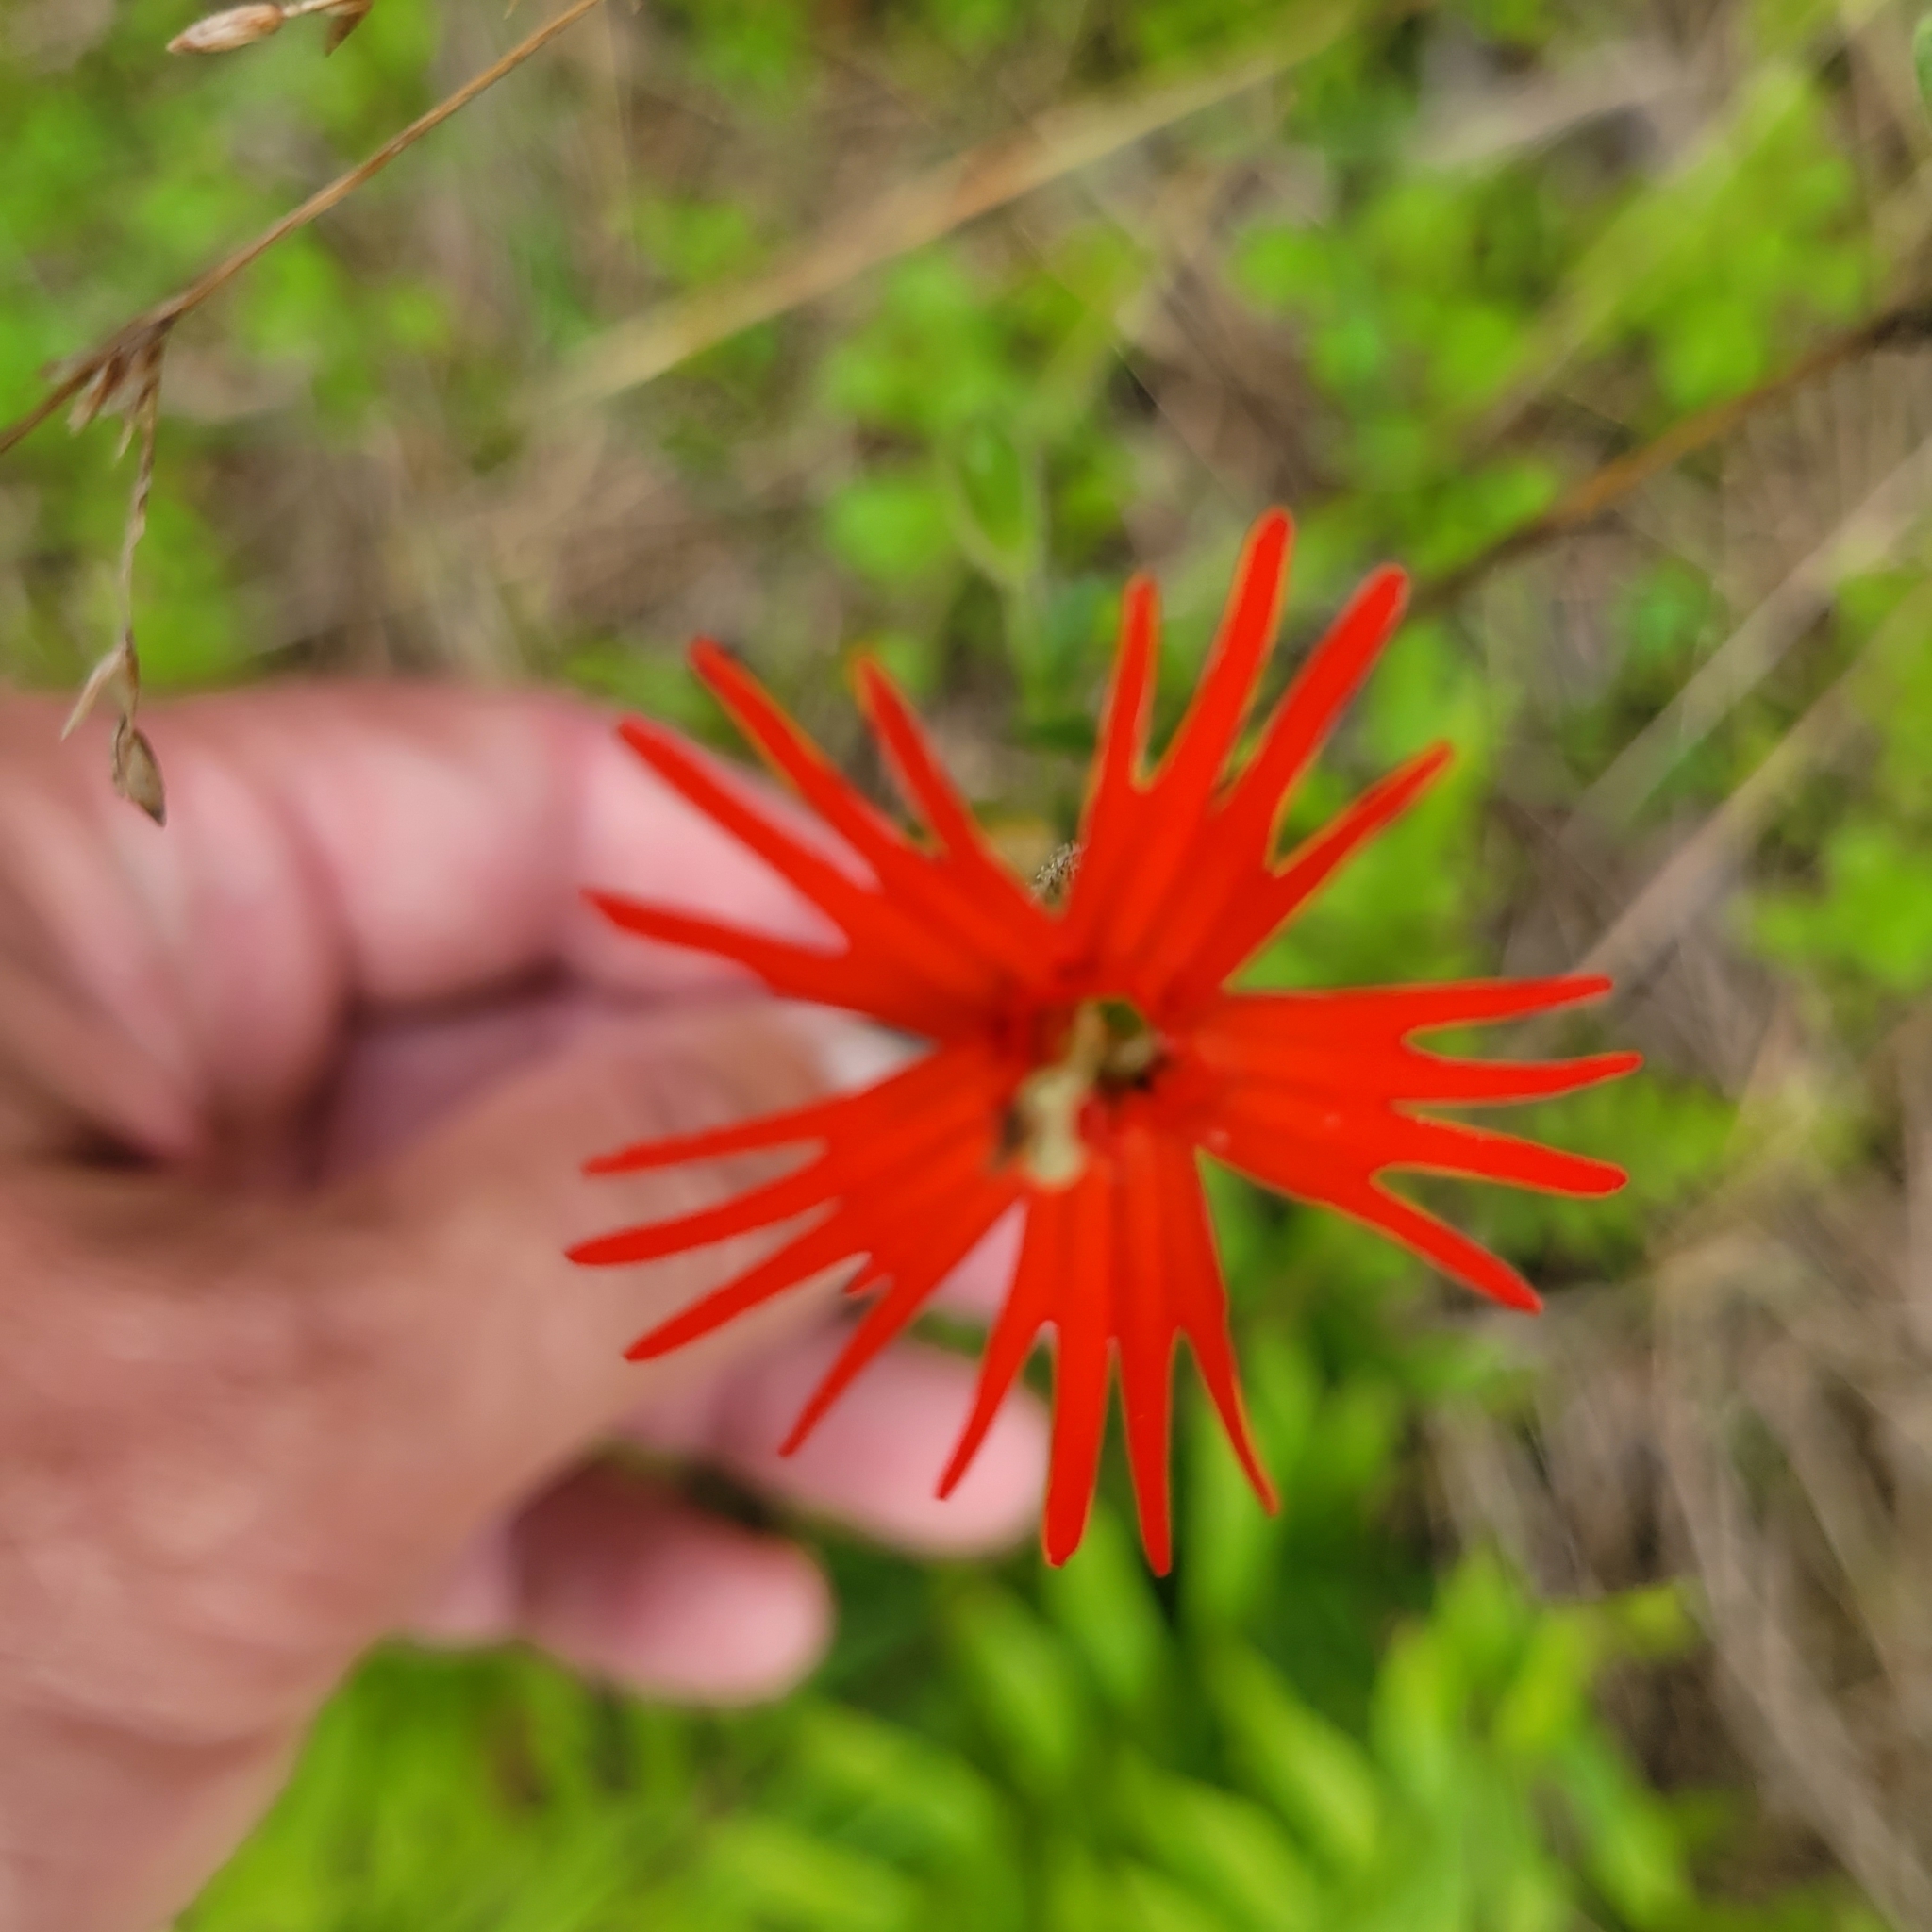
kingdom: Plantae
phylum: Tracheophyta
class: Magnoliopsida
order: Caryophyllales
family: Caryophyllaceae
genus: Silene
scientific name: Silene laciniata
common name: Indian-pink
